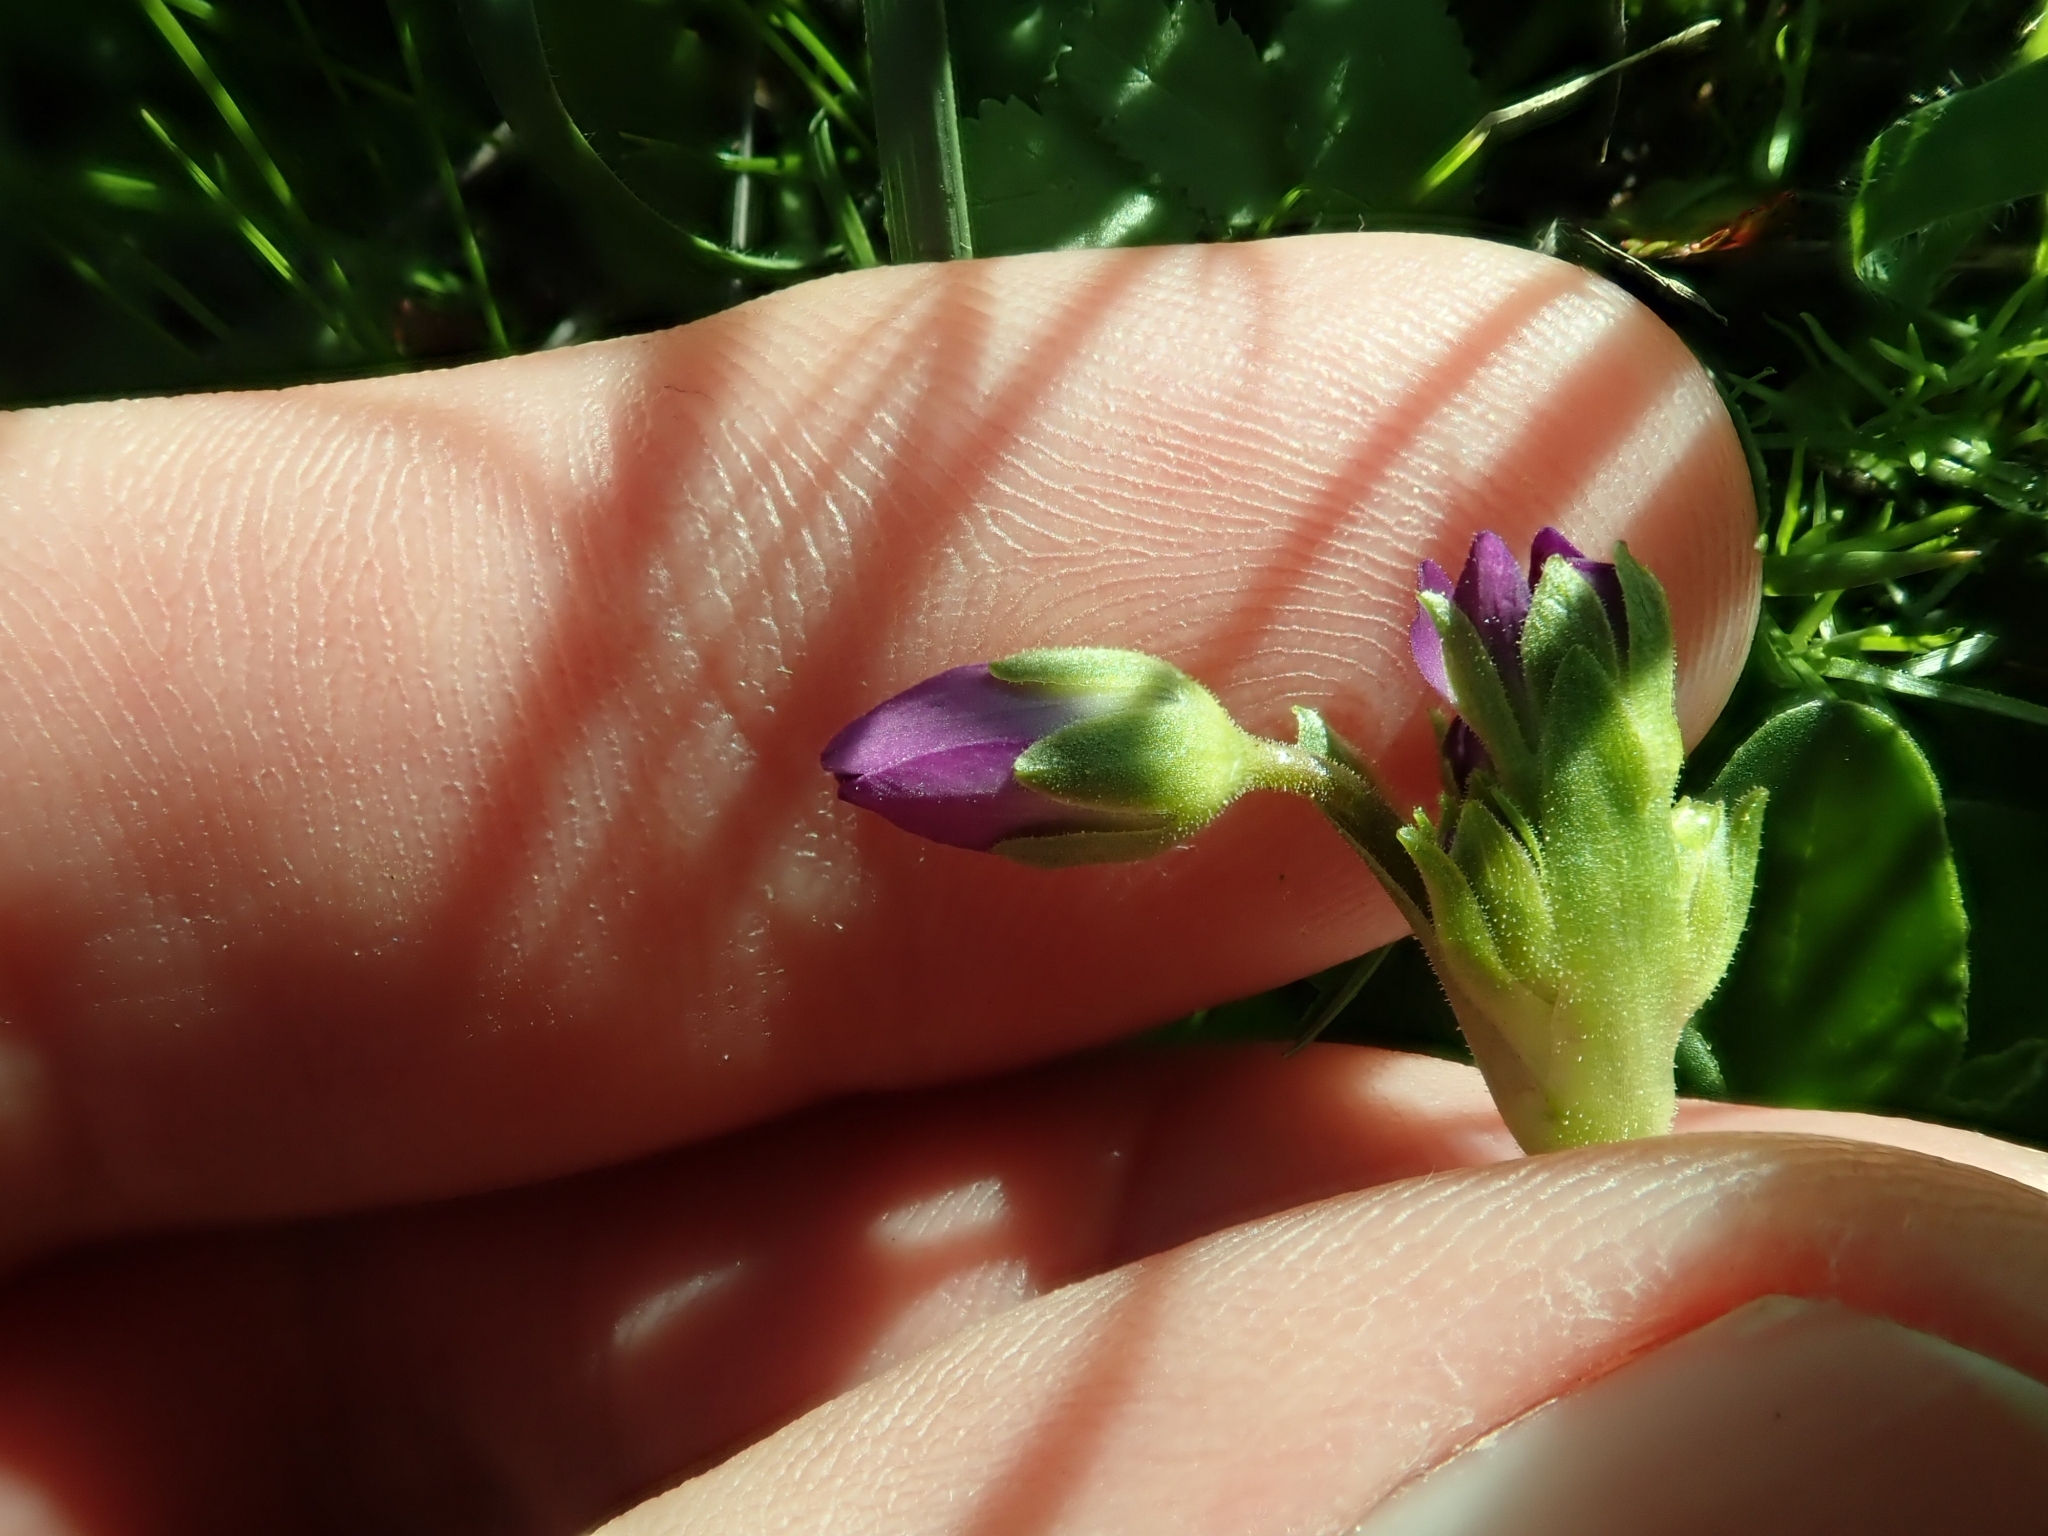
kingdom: Plantae
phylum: Tracheophyta
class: Magnoliopsida
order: Ericales
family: Primulaceae
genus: Dodecatheon
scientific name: Dodecatheon clevelandii
